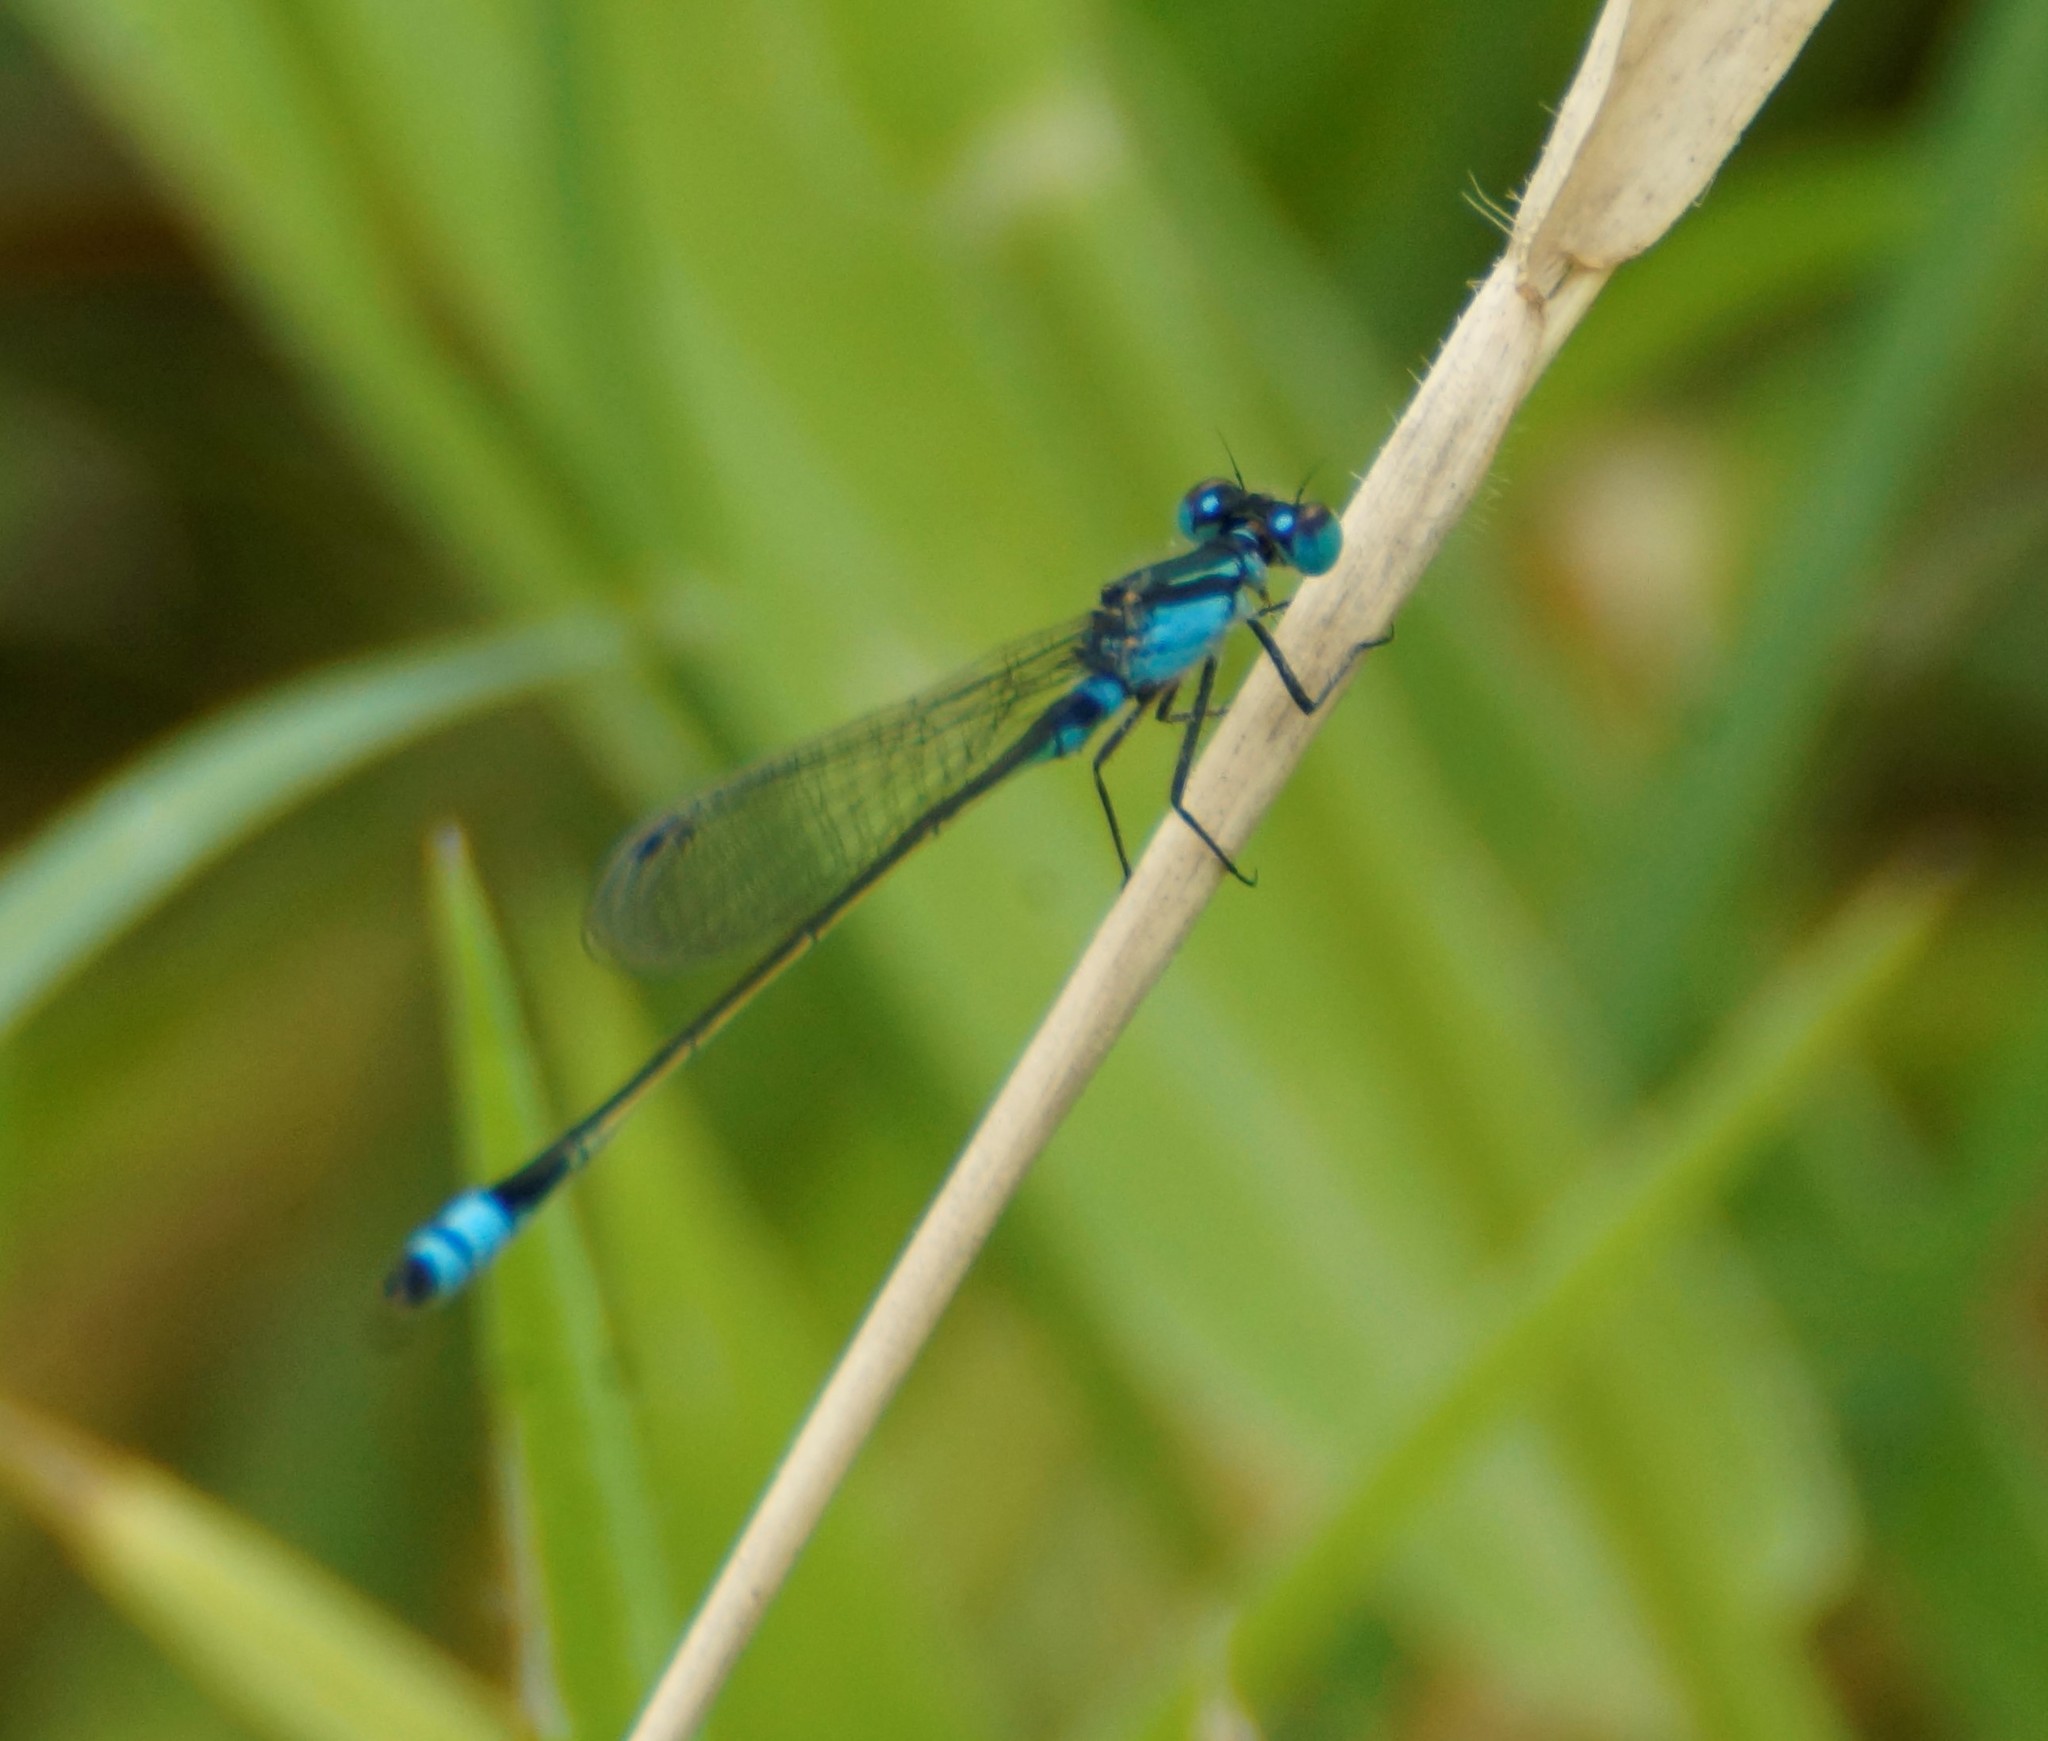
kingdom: Animalia
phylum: Arthropoda
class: Insecta
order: Odonata
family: Coenagrionidae
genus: Ischnura
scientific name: Ischnura heterosticta
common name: Common bluetail
